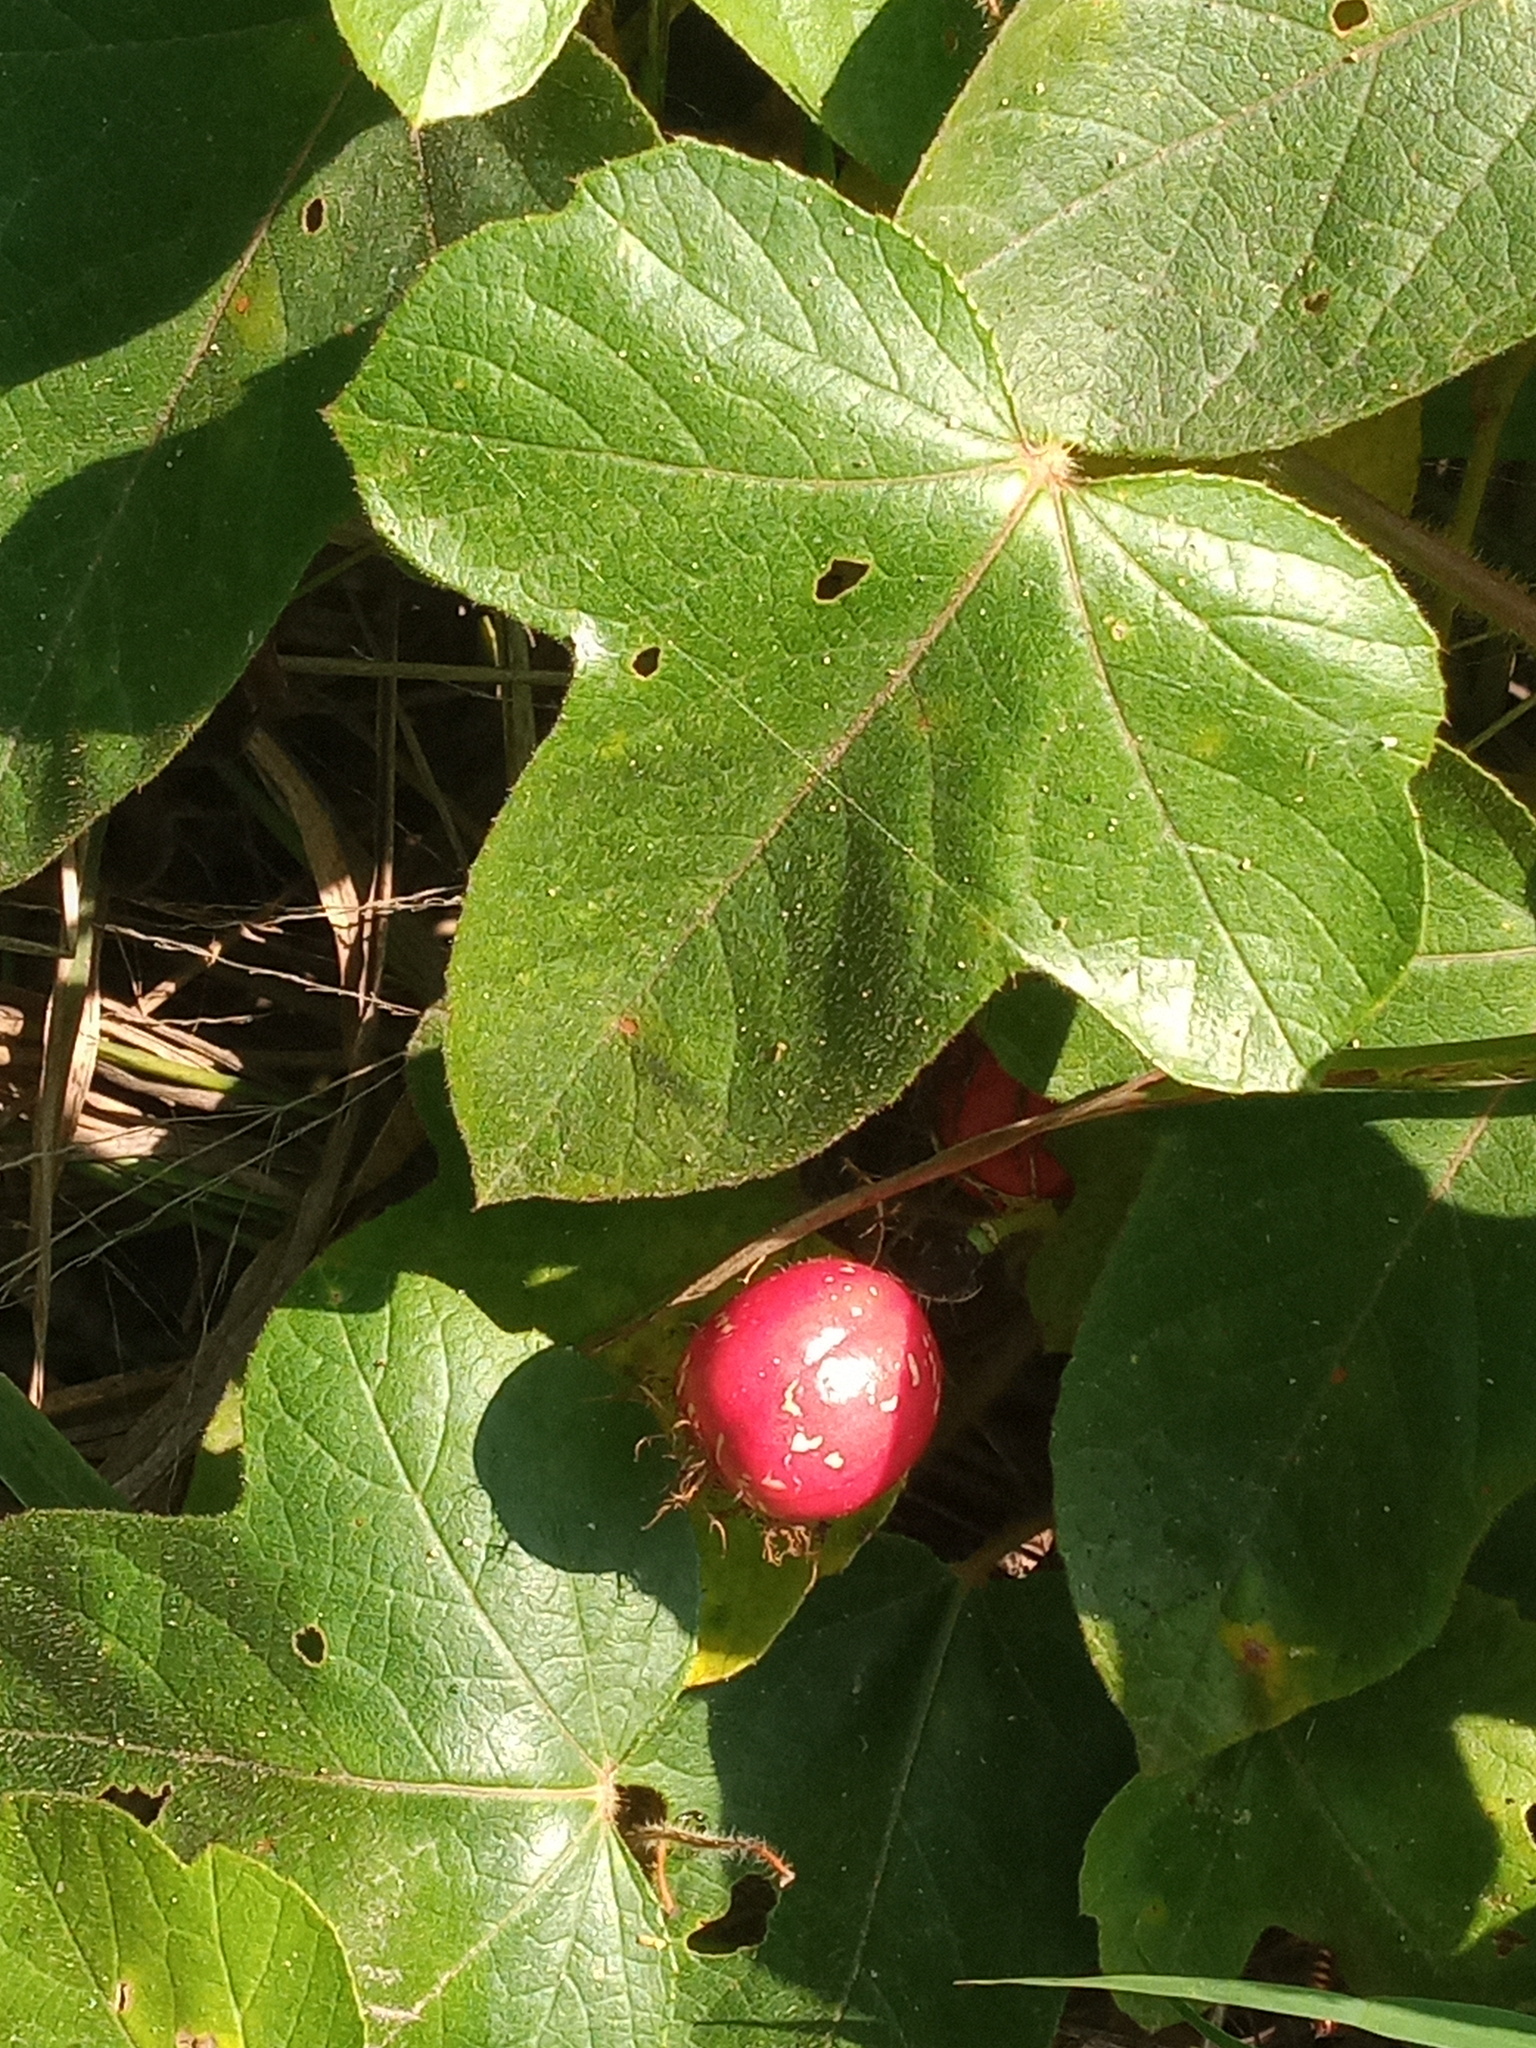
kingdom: Plantae
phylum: Tracheophyta
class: Magnoliopsida
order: Malpighiales
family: Passifloraceae
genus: Passiflora
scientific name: Passiflora
